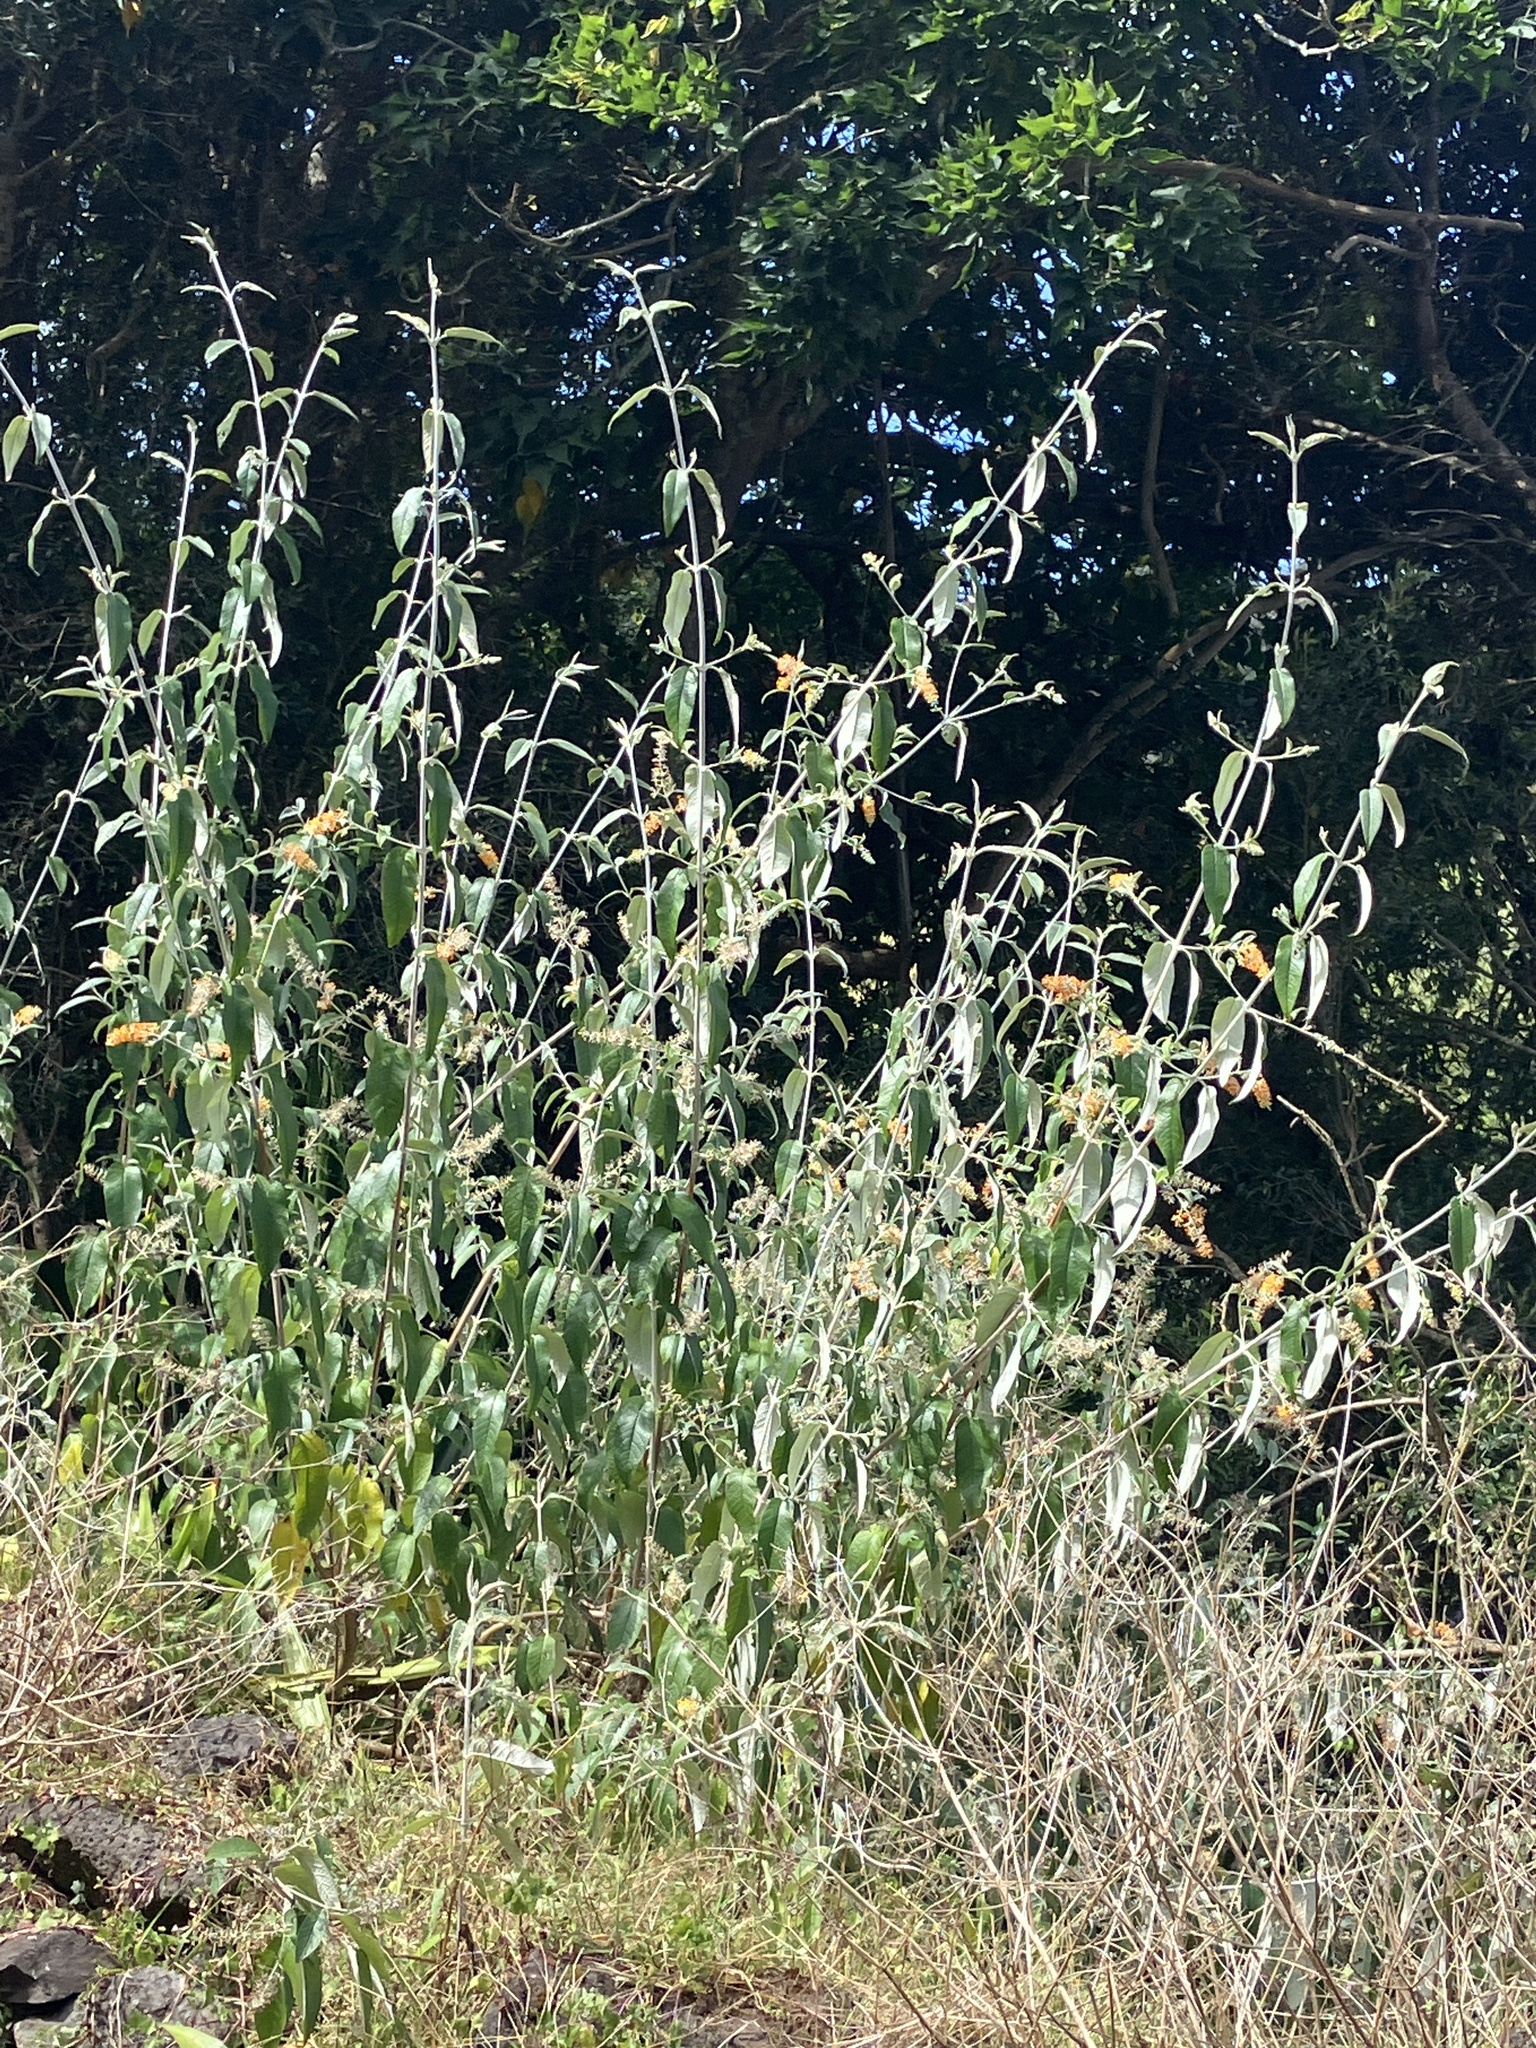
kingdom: Plantae
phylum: Tracheophyta
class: Magnoliopsida
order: Lamiales
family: Scrophulariaceae
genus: Buddleja
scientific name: Buddleja madagascariensis
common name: Smokebush
